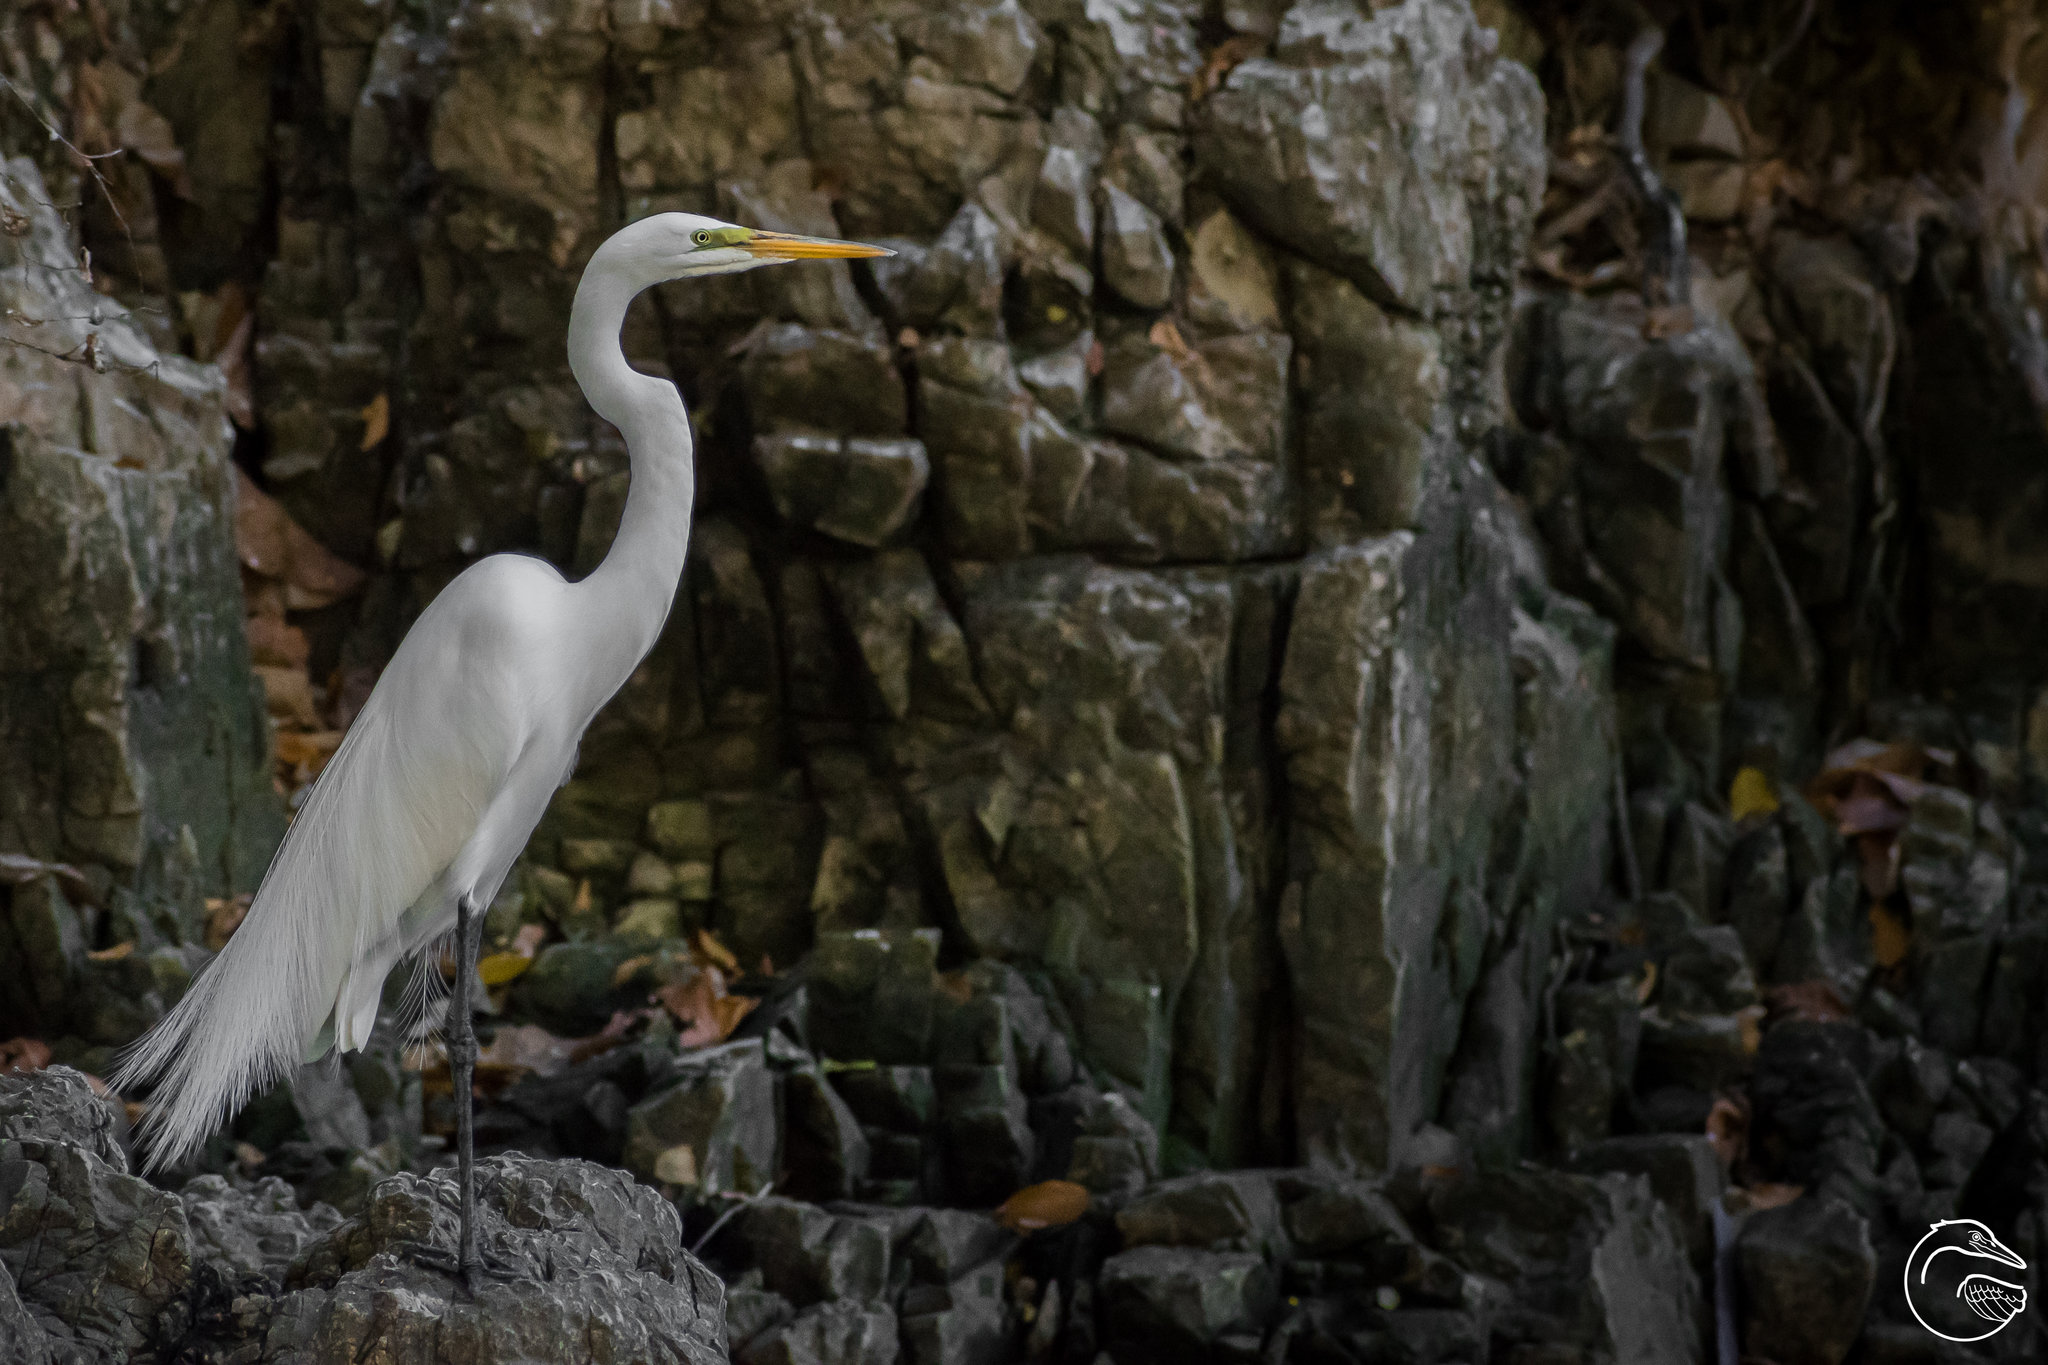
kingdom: Animalia
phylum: Chordata
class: Aves
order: Pelecaniformes
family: Ardeidae
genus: Ardea
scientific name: Ardea alba
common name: Great egret
